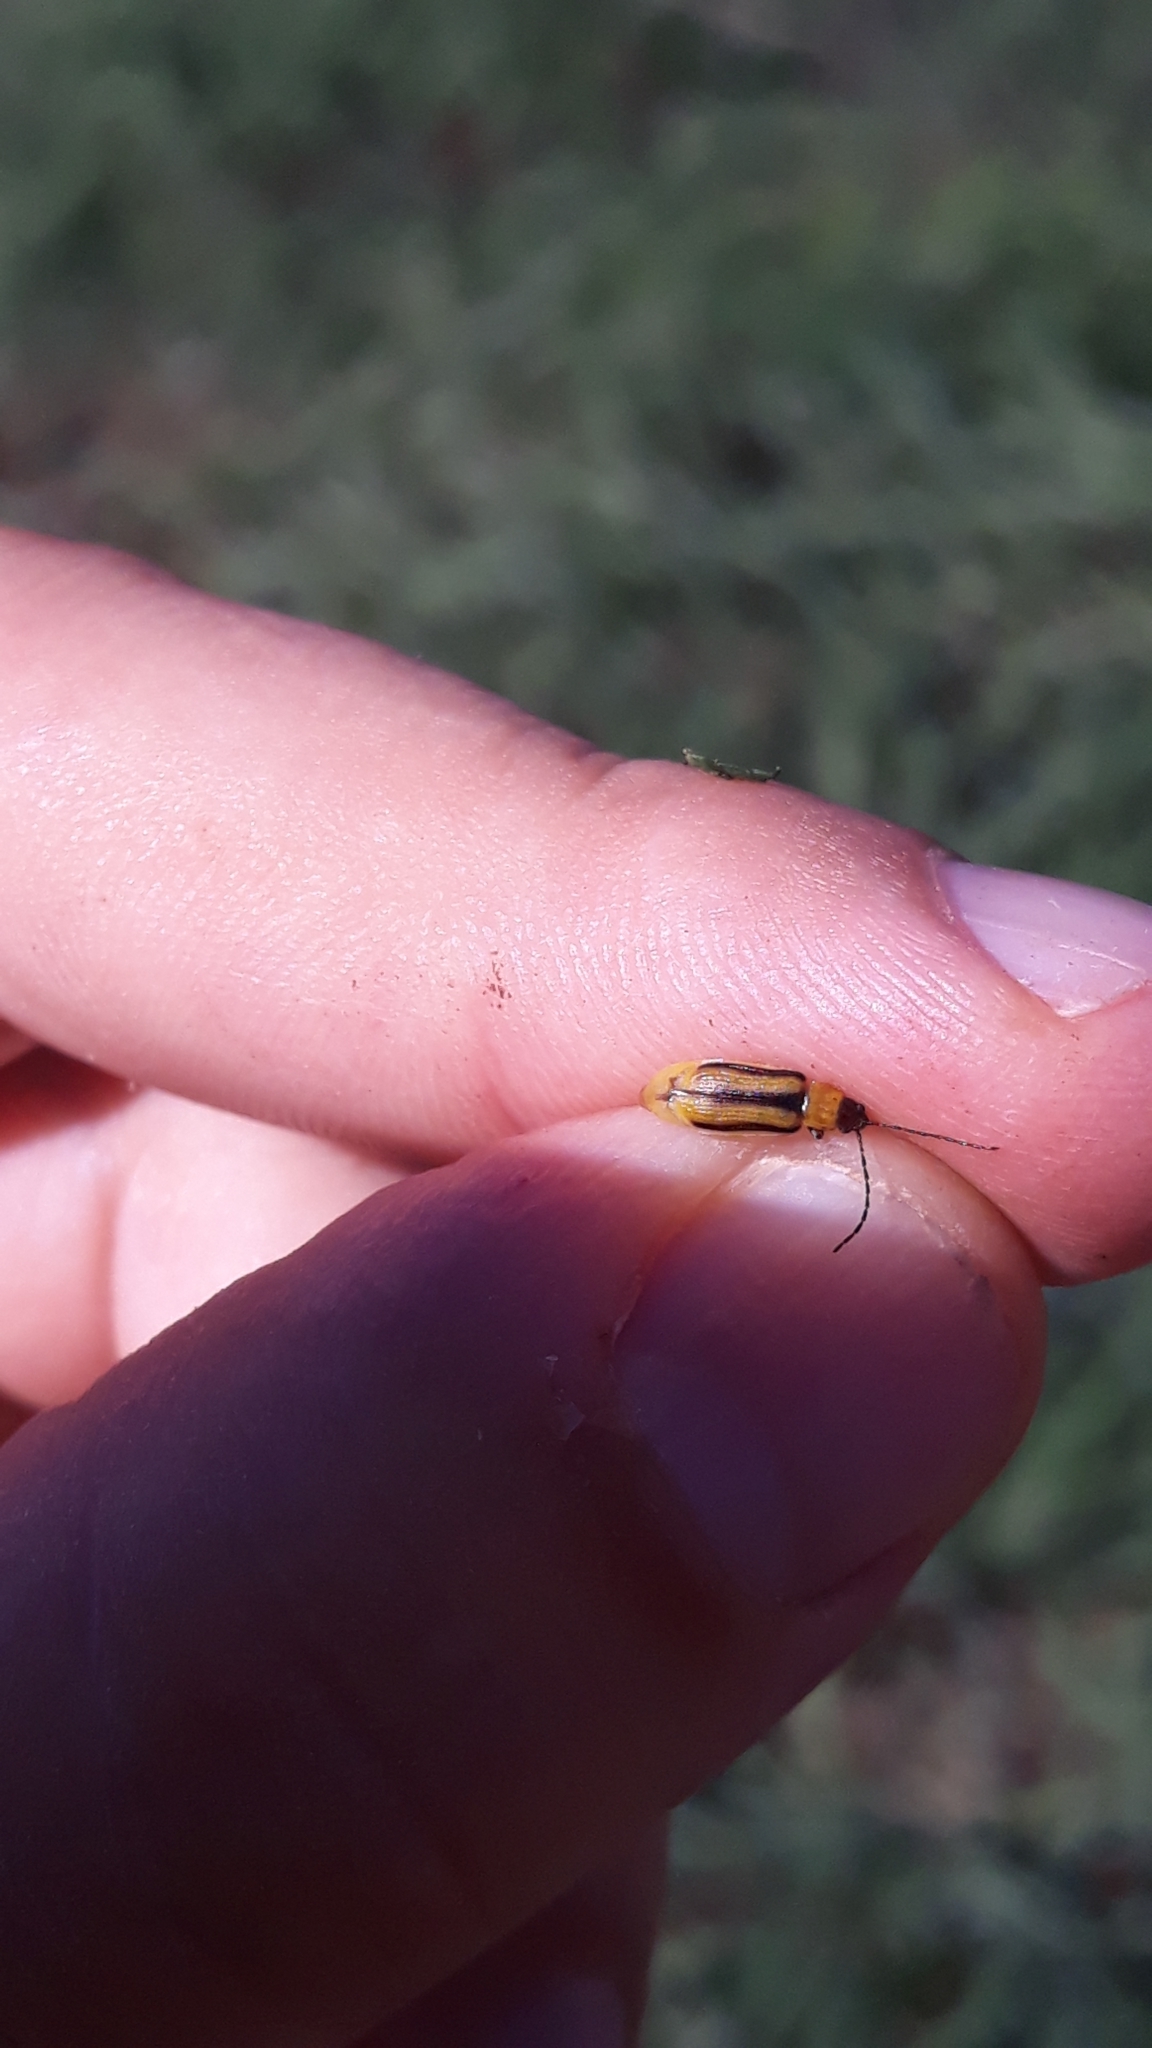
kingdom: Animalia
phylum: Arthropoda
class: Insecta
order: Coleoptera
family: Chrysomelidae
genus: Diabrotica
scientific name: Diabrotica virgifera
